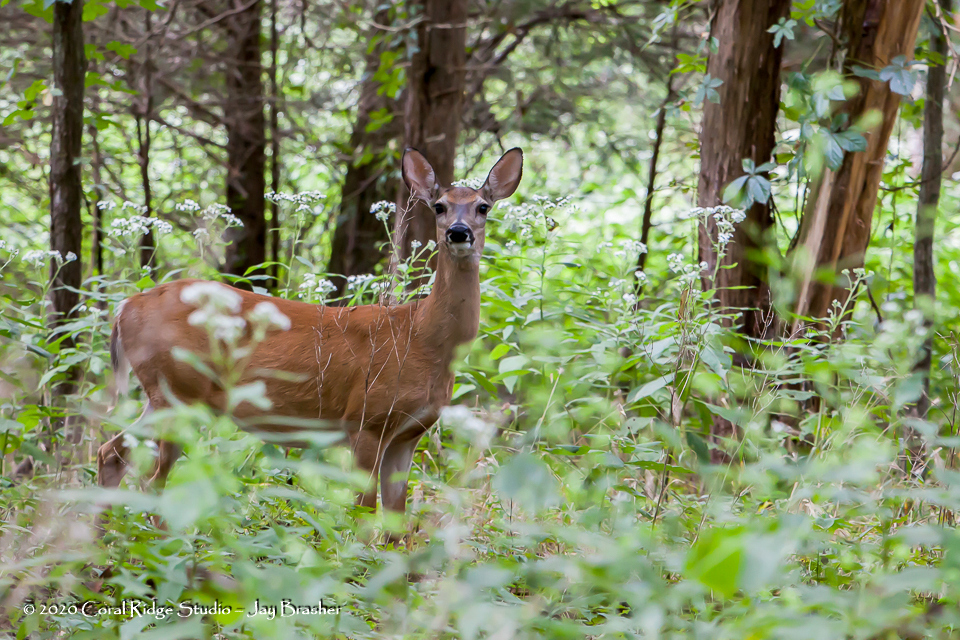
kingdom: Animalia
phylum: Chordata
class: Mammalia
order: Artiodactyla
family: Cervidae
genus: Odocoileus
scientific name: Odocoileus virginianus
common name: White-tailed deer
